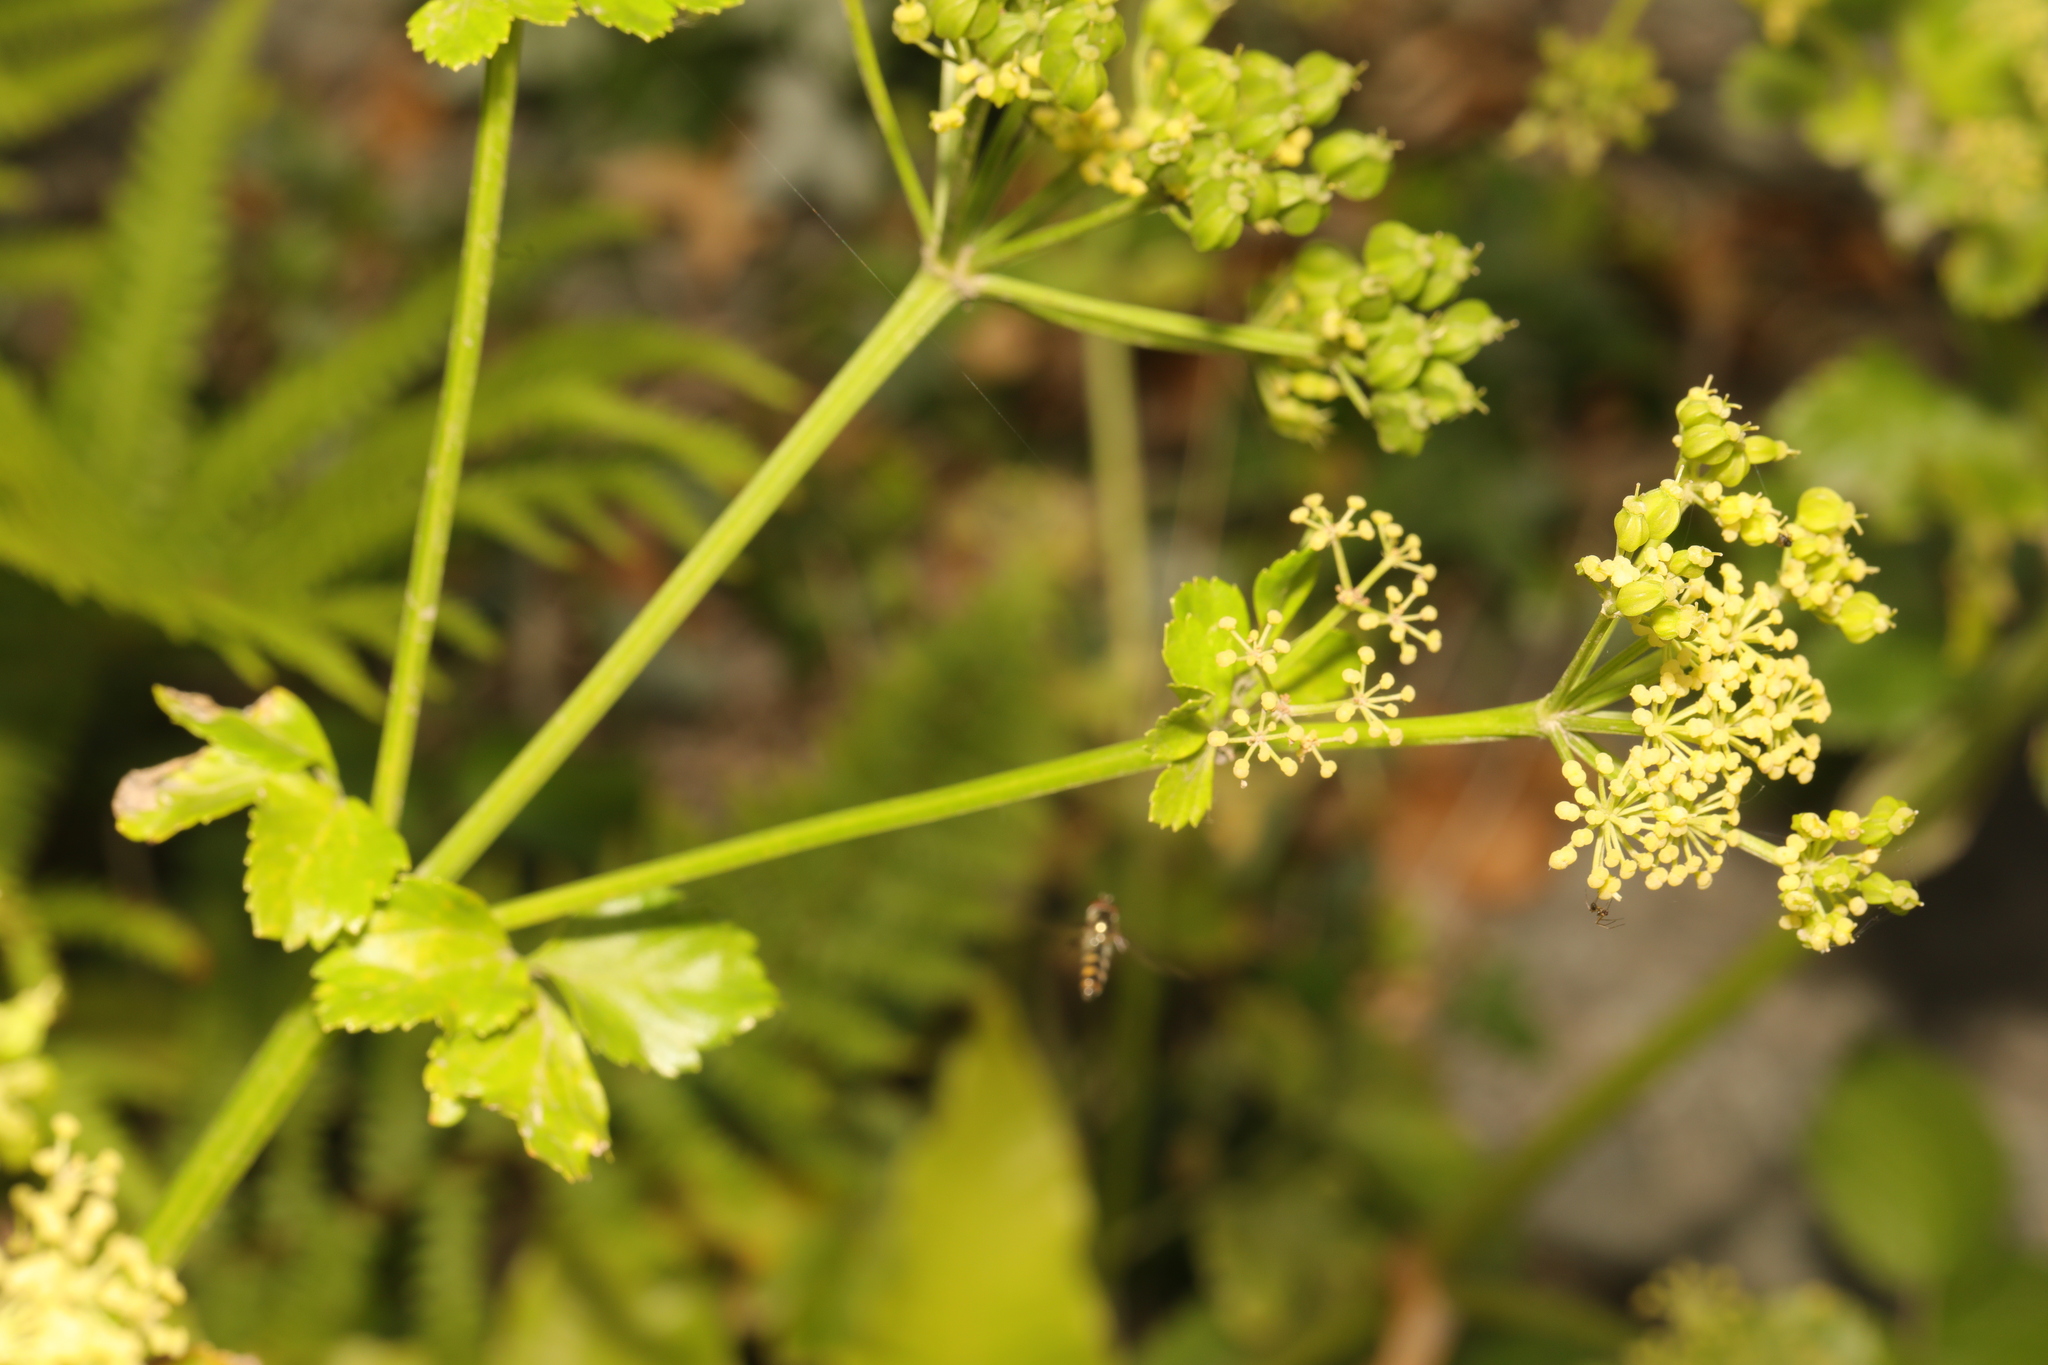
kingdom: Plantae
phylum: Tracheophyta
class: Magnoliopsida
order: Apiales
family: Apiaceae
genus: Smyrnium
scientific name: Smyrnium olusatrum
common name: Alexanders
